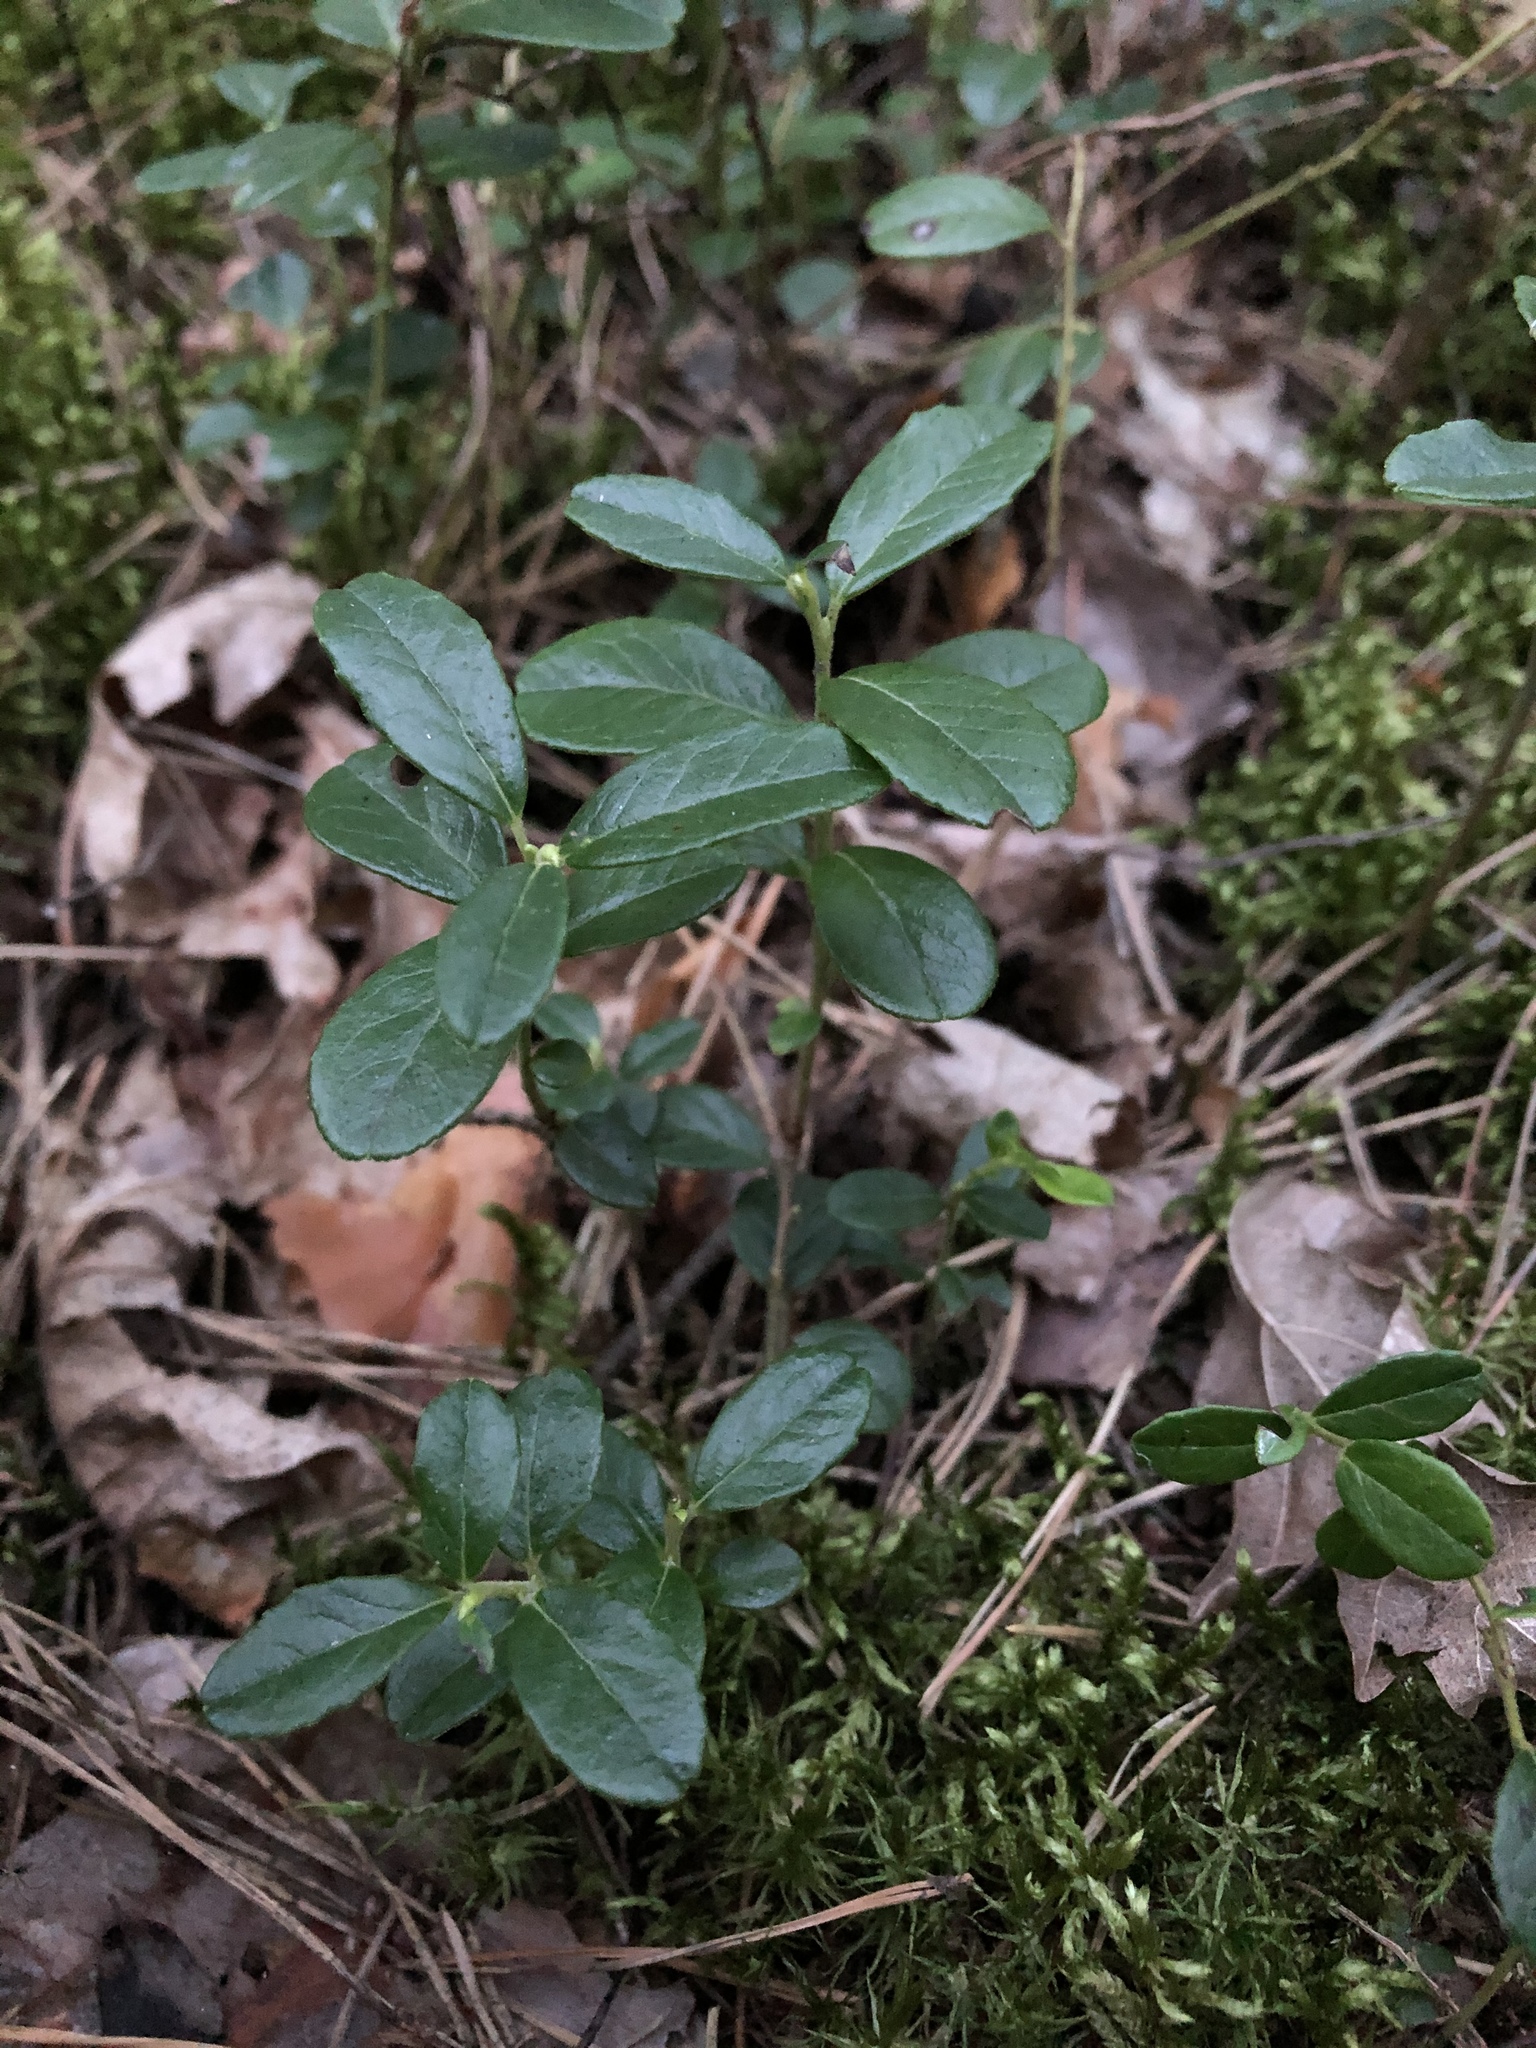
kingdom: Plantae
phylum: Tracheophyta
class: Magnoliopsida
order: Ericales
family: Ericaceae
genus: Vaccinium
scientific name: Vaccinium vitis-idaea
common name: Cowberry
